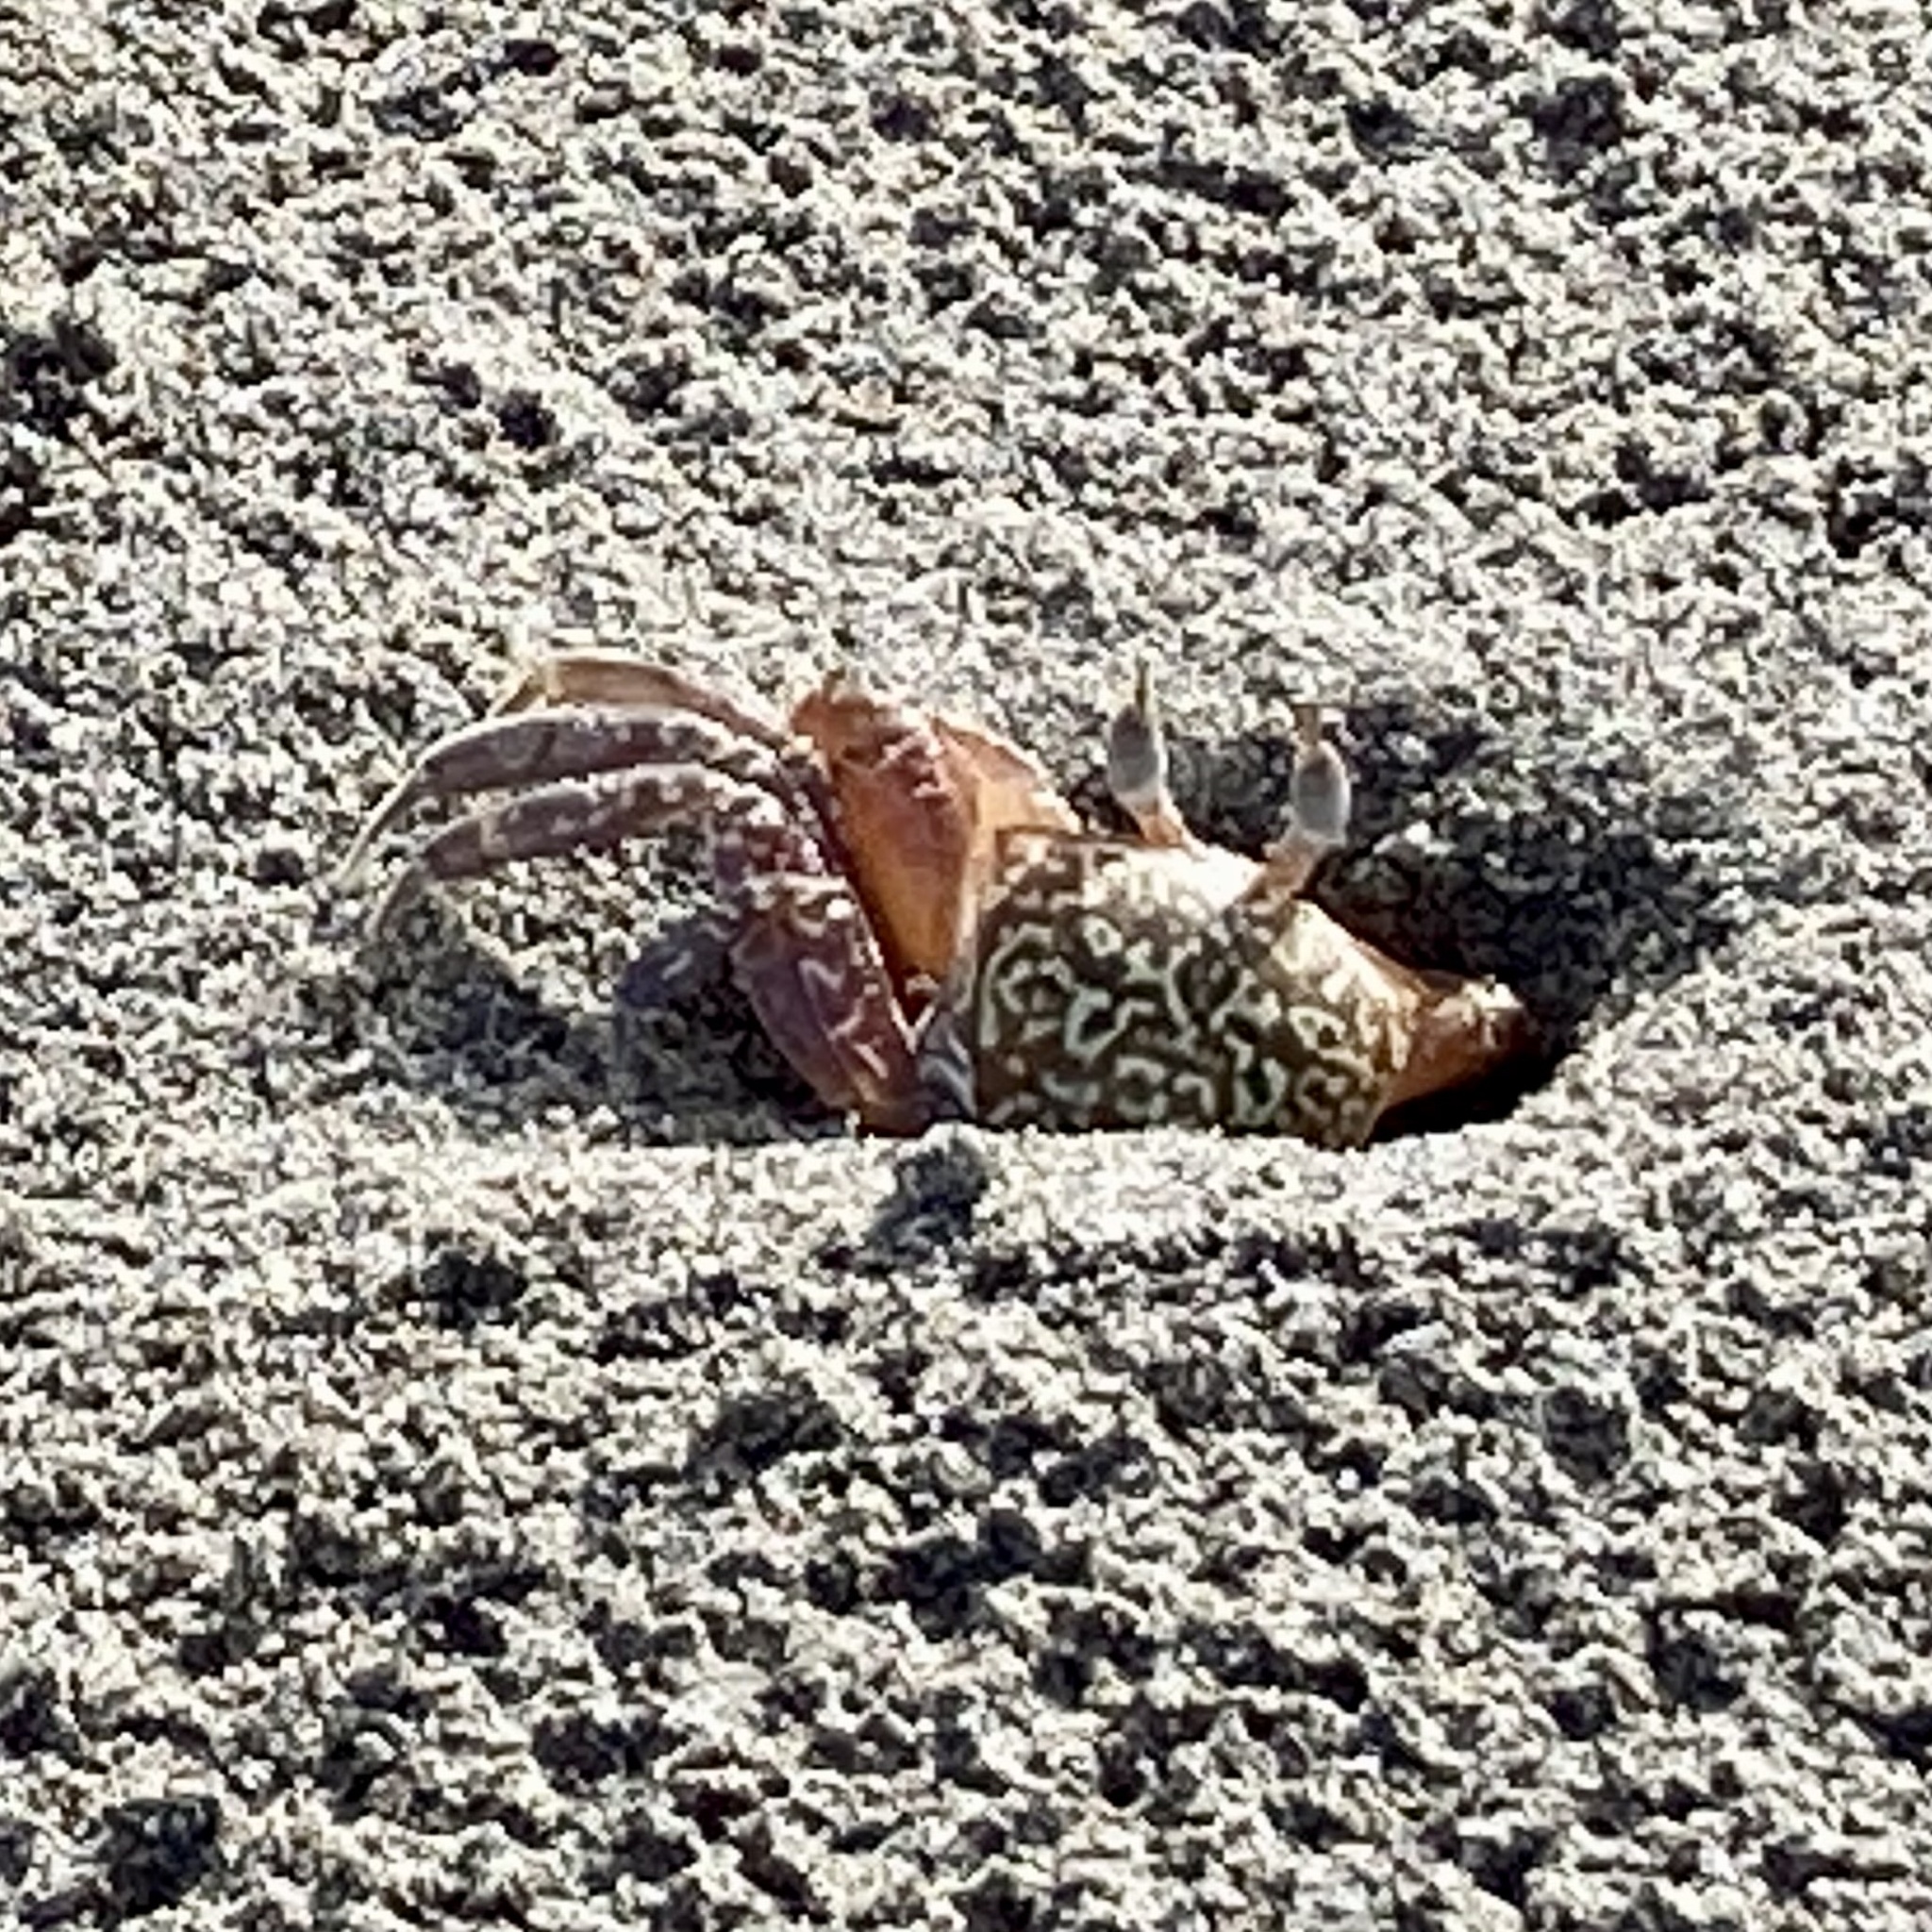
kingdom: Animalia
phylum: Arthropoda
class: Malacostraca
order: Decapoda
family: Ocypodidae
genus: Ocypode
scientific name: Ocypode gaudichaudii
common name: Pacific ghost crab
